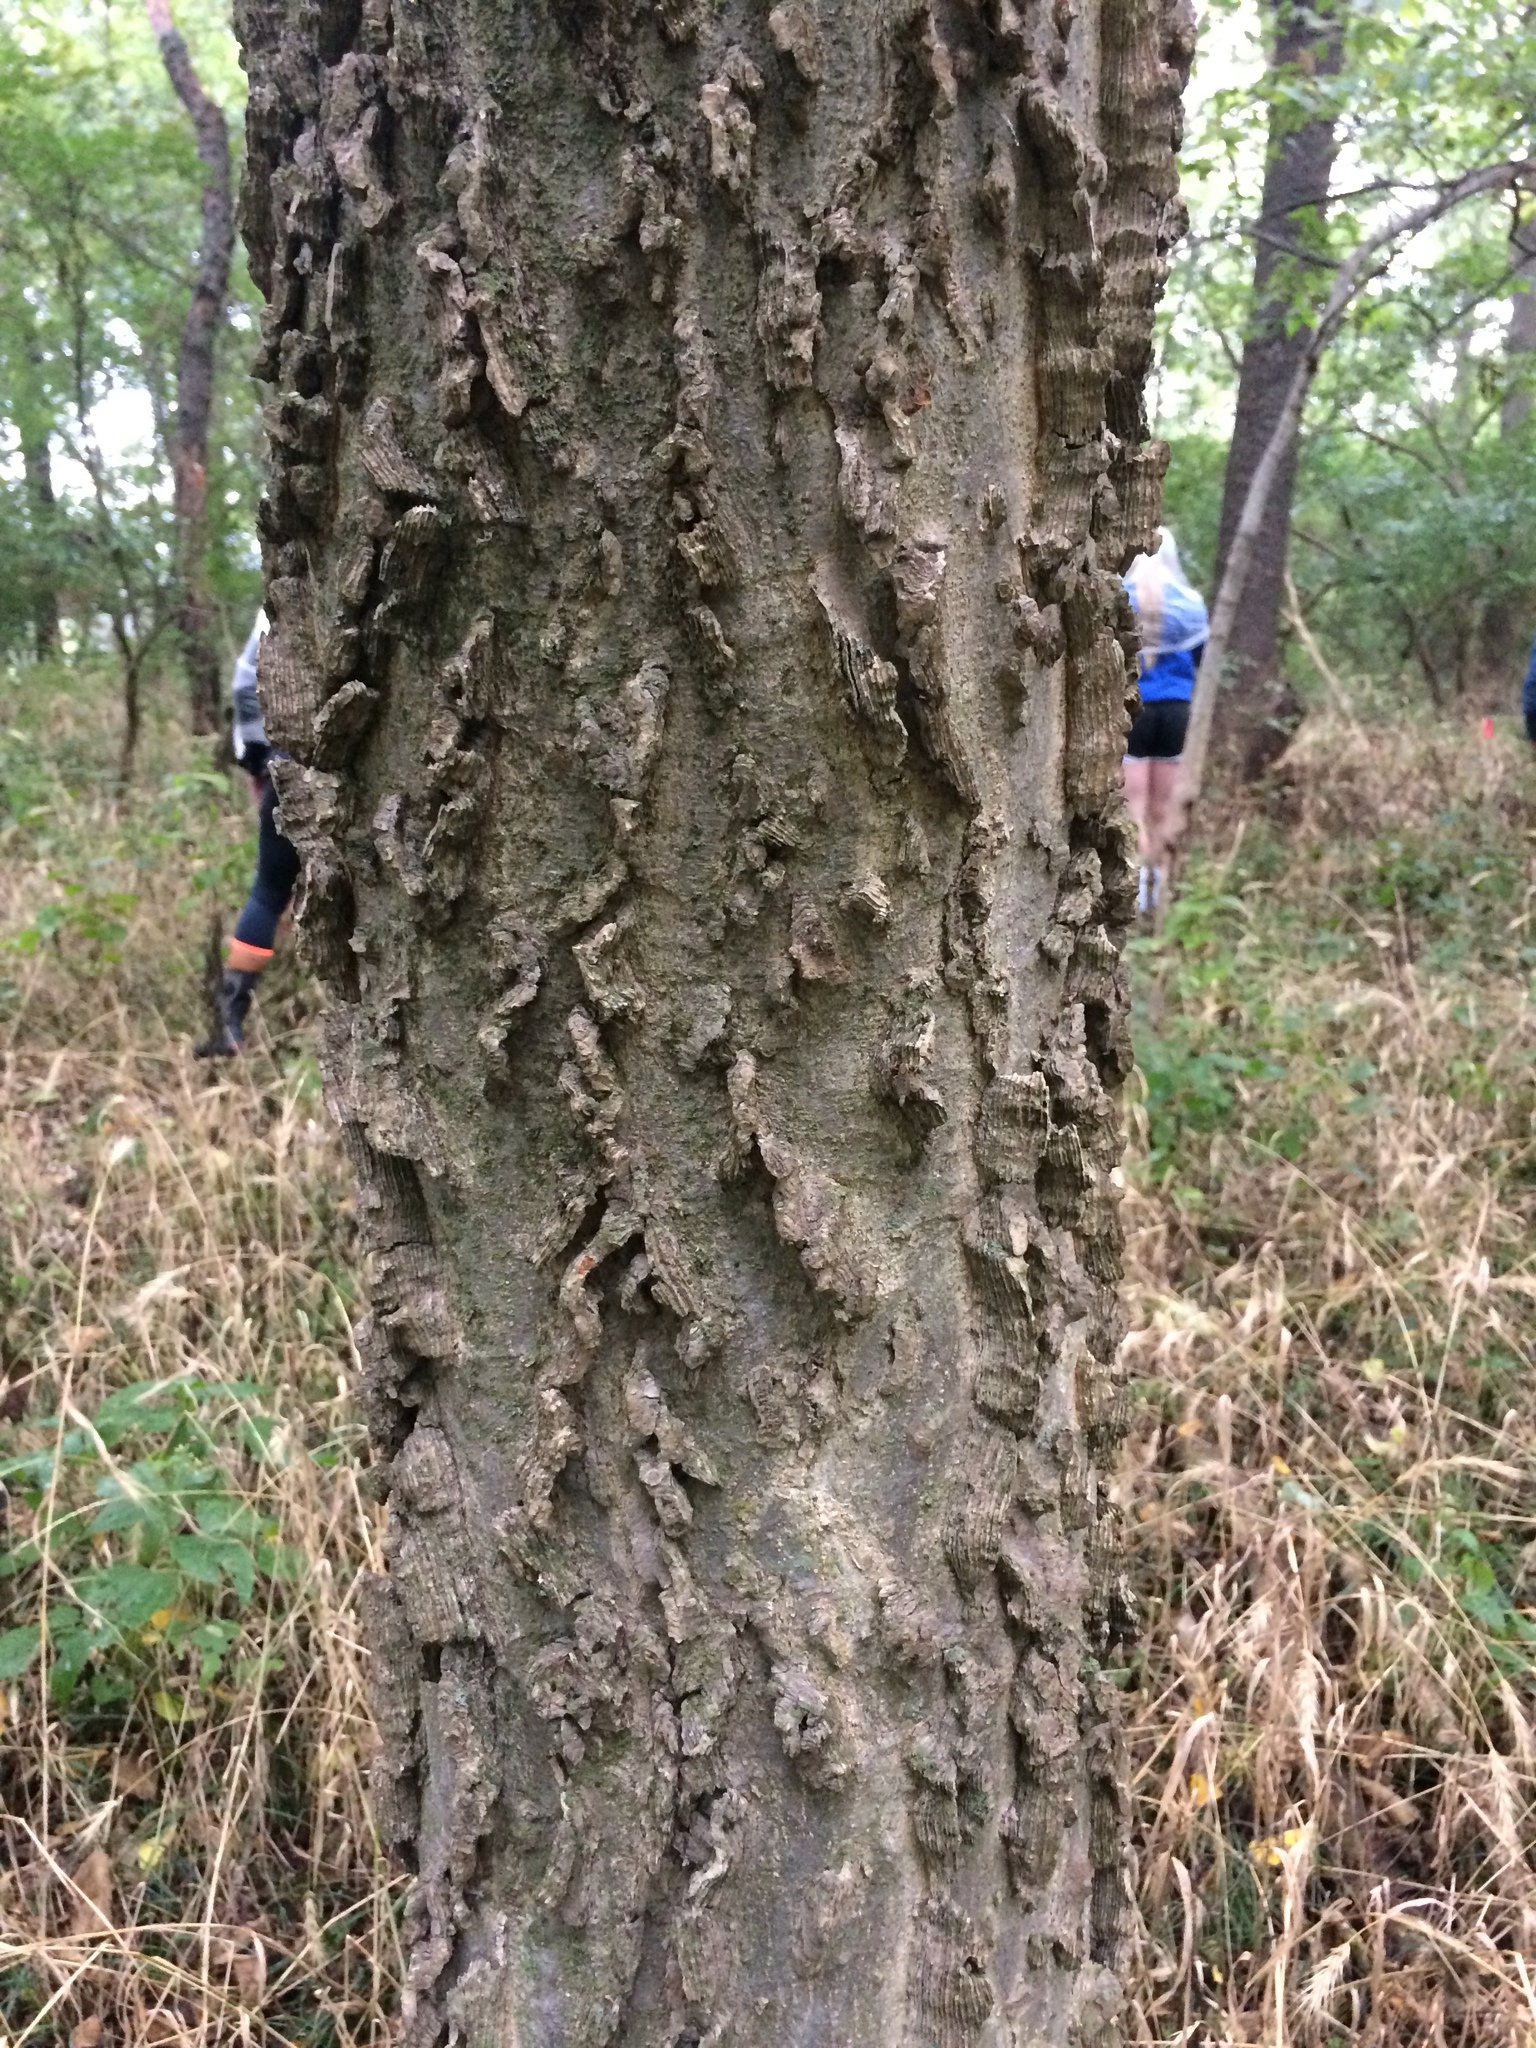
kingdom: Plantae
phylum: Tracheophyta
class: Magnoliopsida
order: Rosales
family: Cannabaceae
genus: Celtis
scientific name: Celtis occidentalis
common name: Common hackberry
